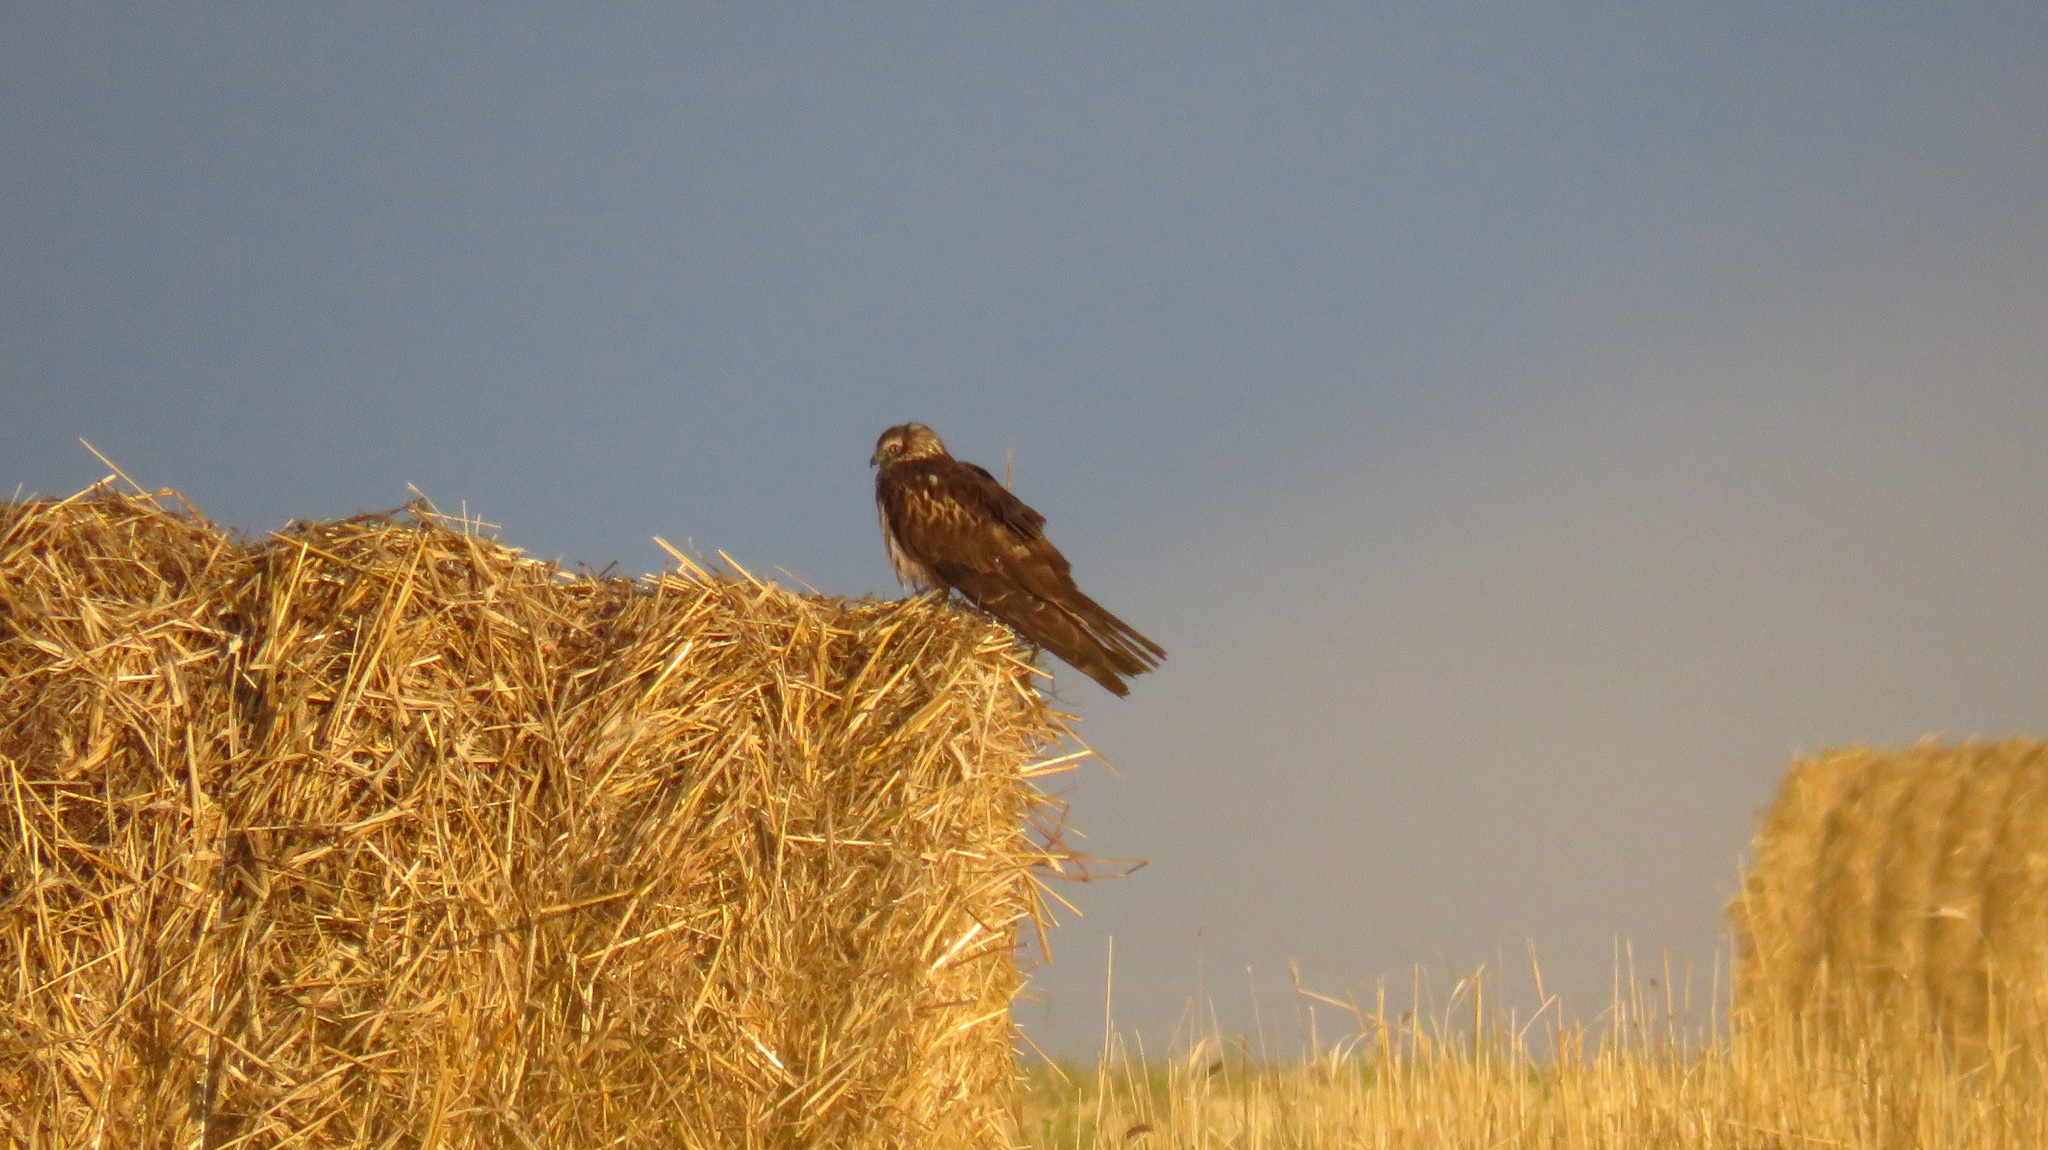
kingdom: Animalia
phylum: Chordata
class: Aves
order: Accipitriformes
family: Accipitridae
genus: Circus
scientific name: Circus pygargus
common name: Montagu's harrier
